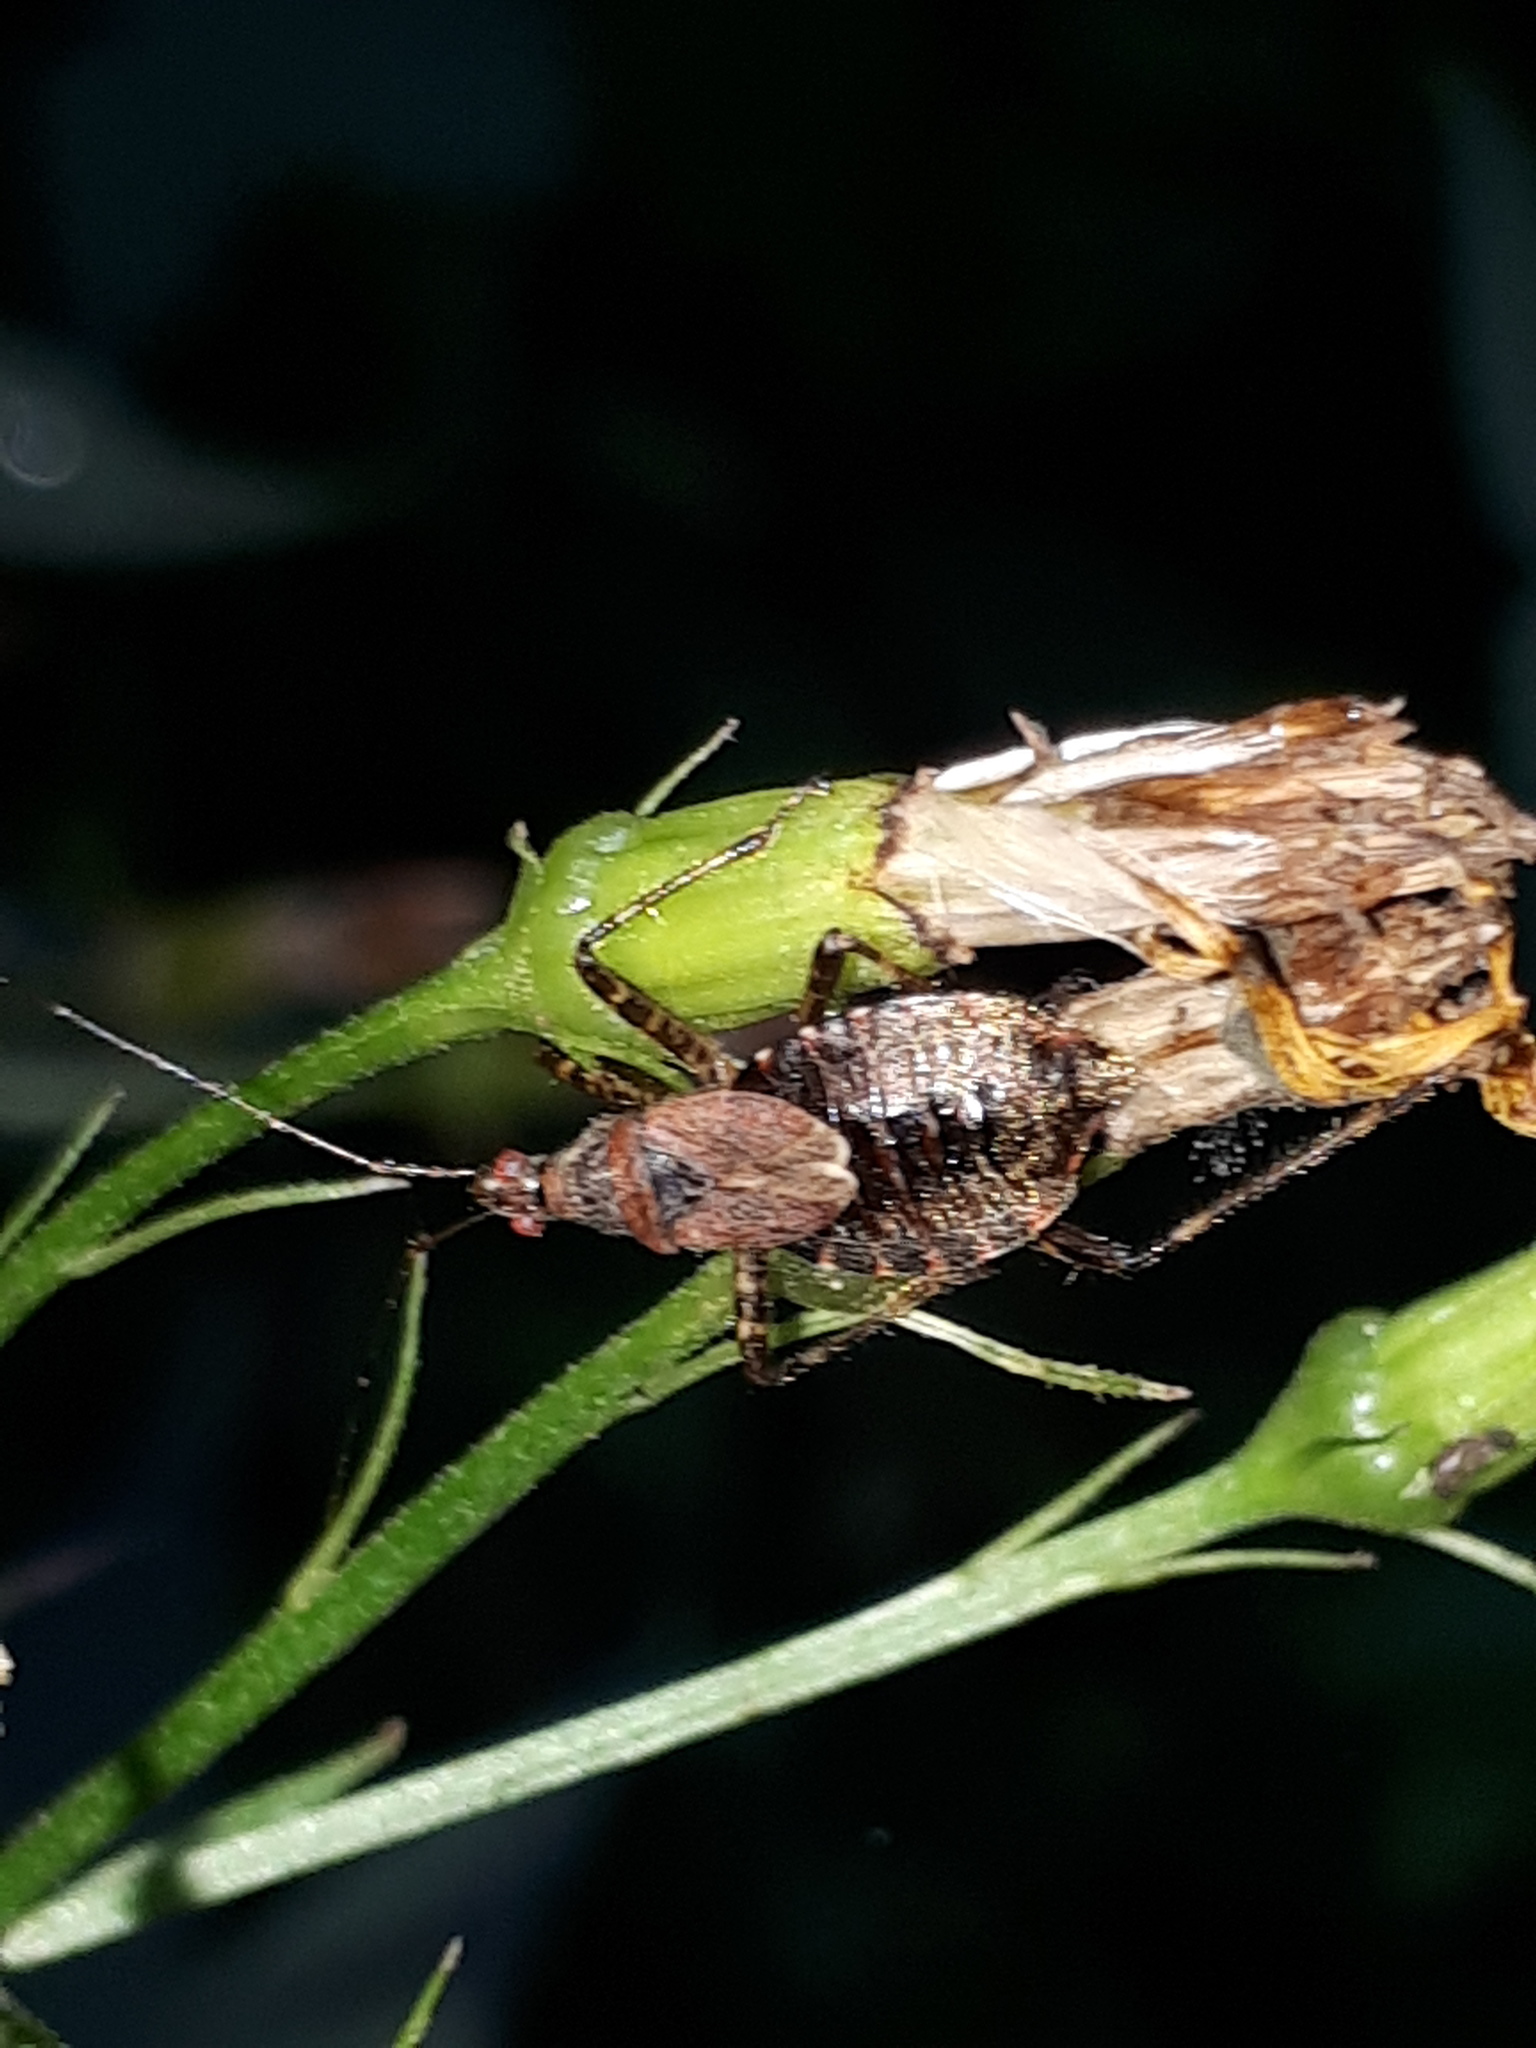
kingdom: Animalia
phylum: Arthropoda
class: Insecta
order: Hemiptera
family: Nabidae
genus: Himacerus
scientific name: Himacerus apterus
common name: Tree damsel bug
